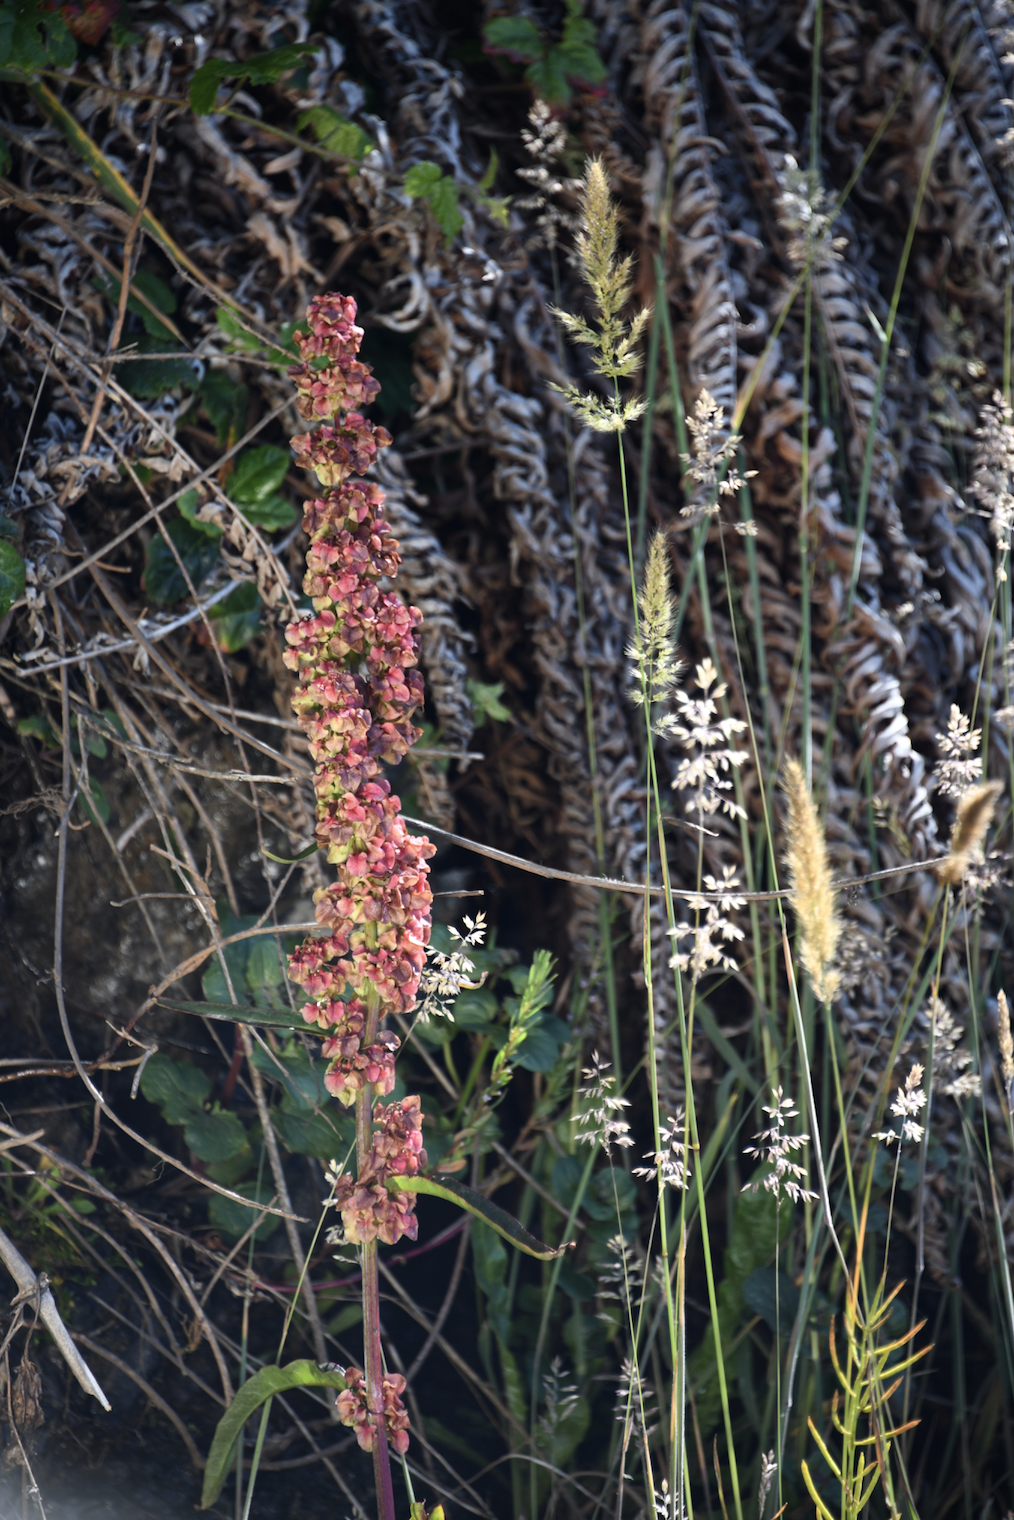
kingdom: Plantae
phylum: Tracheophyta
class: Magnoliopsida
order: Caryophyllales
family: Polygonaceae
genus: Rumex
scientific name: Rumex occidentalis
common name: Western dock
